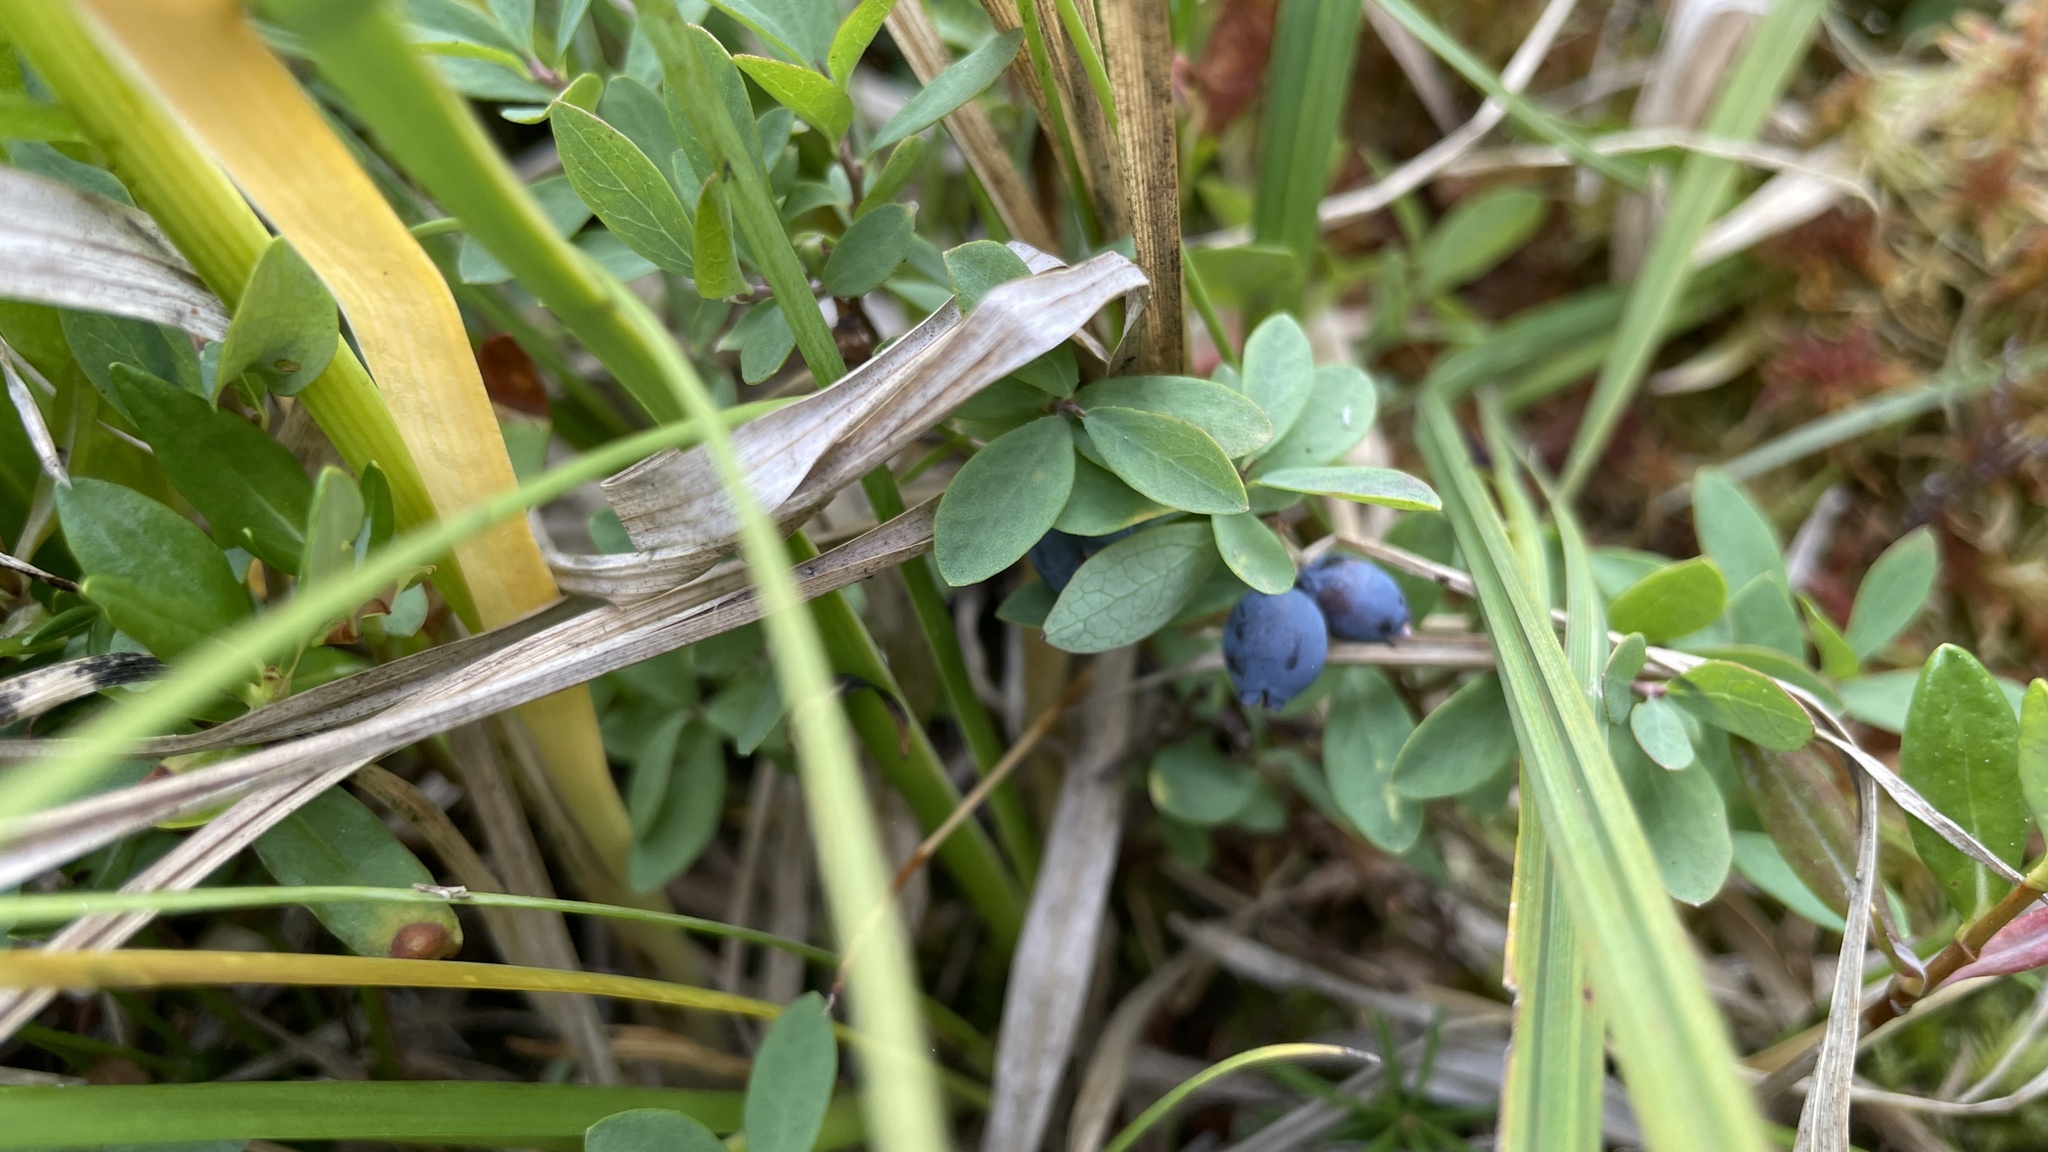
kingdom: Plantae
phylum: Tracheophyta
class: Magnoliopsida
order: Ericales
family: Ericaceae
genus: Vaccinium
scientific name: Vaccinium uliginosum
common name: Bog bilberry
